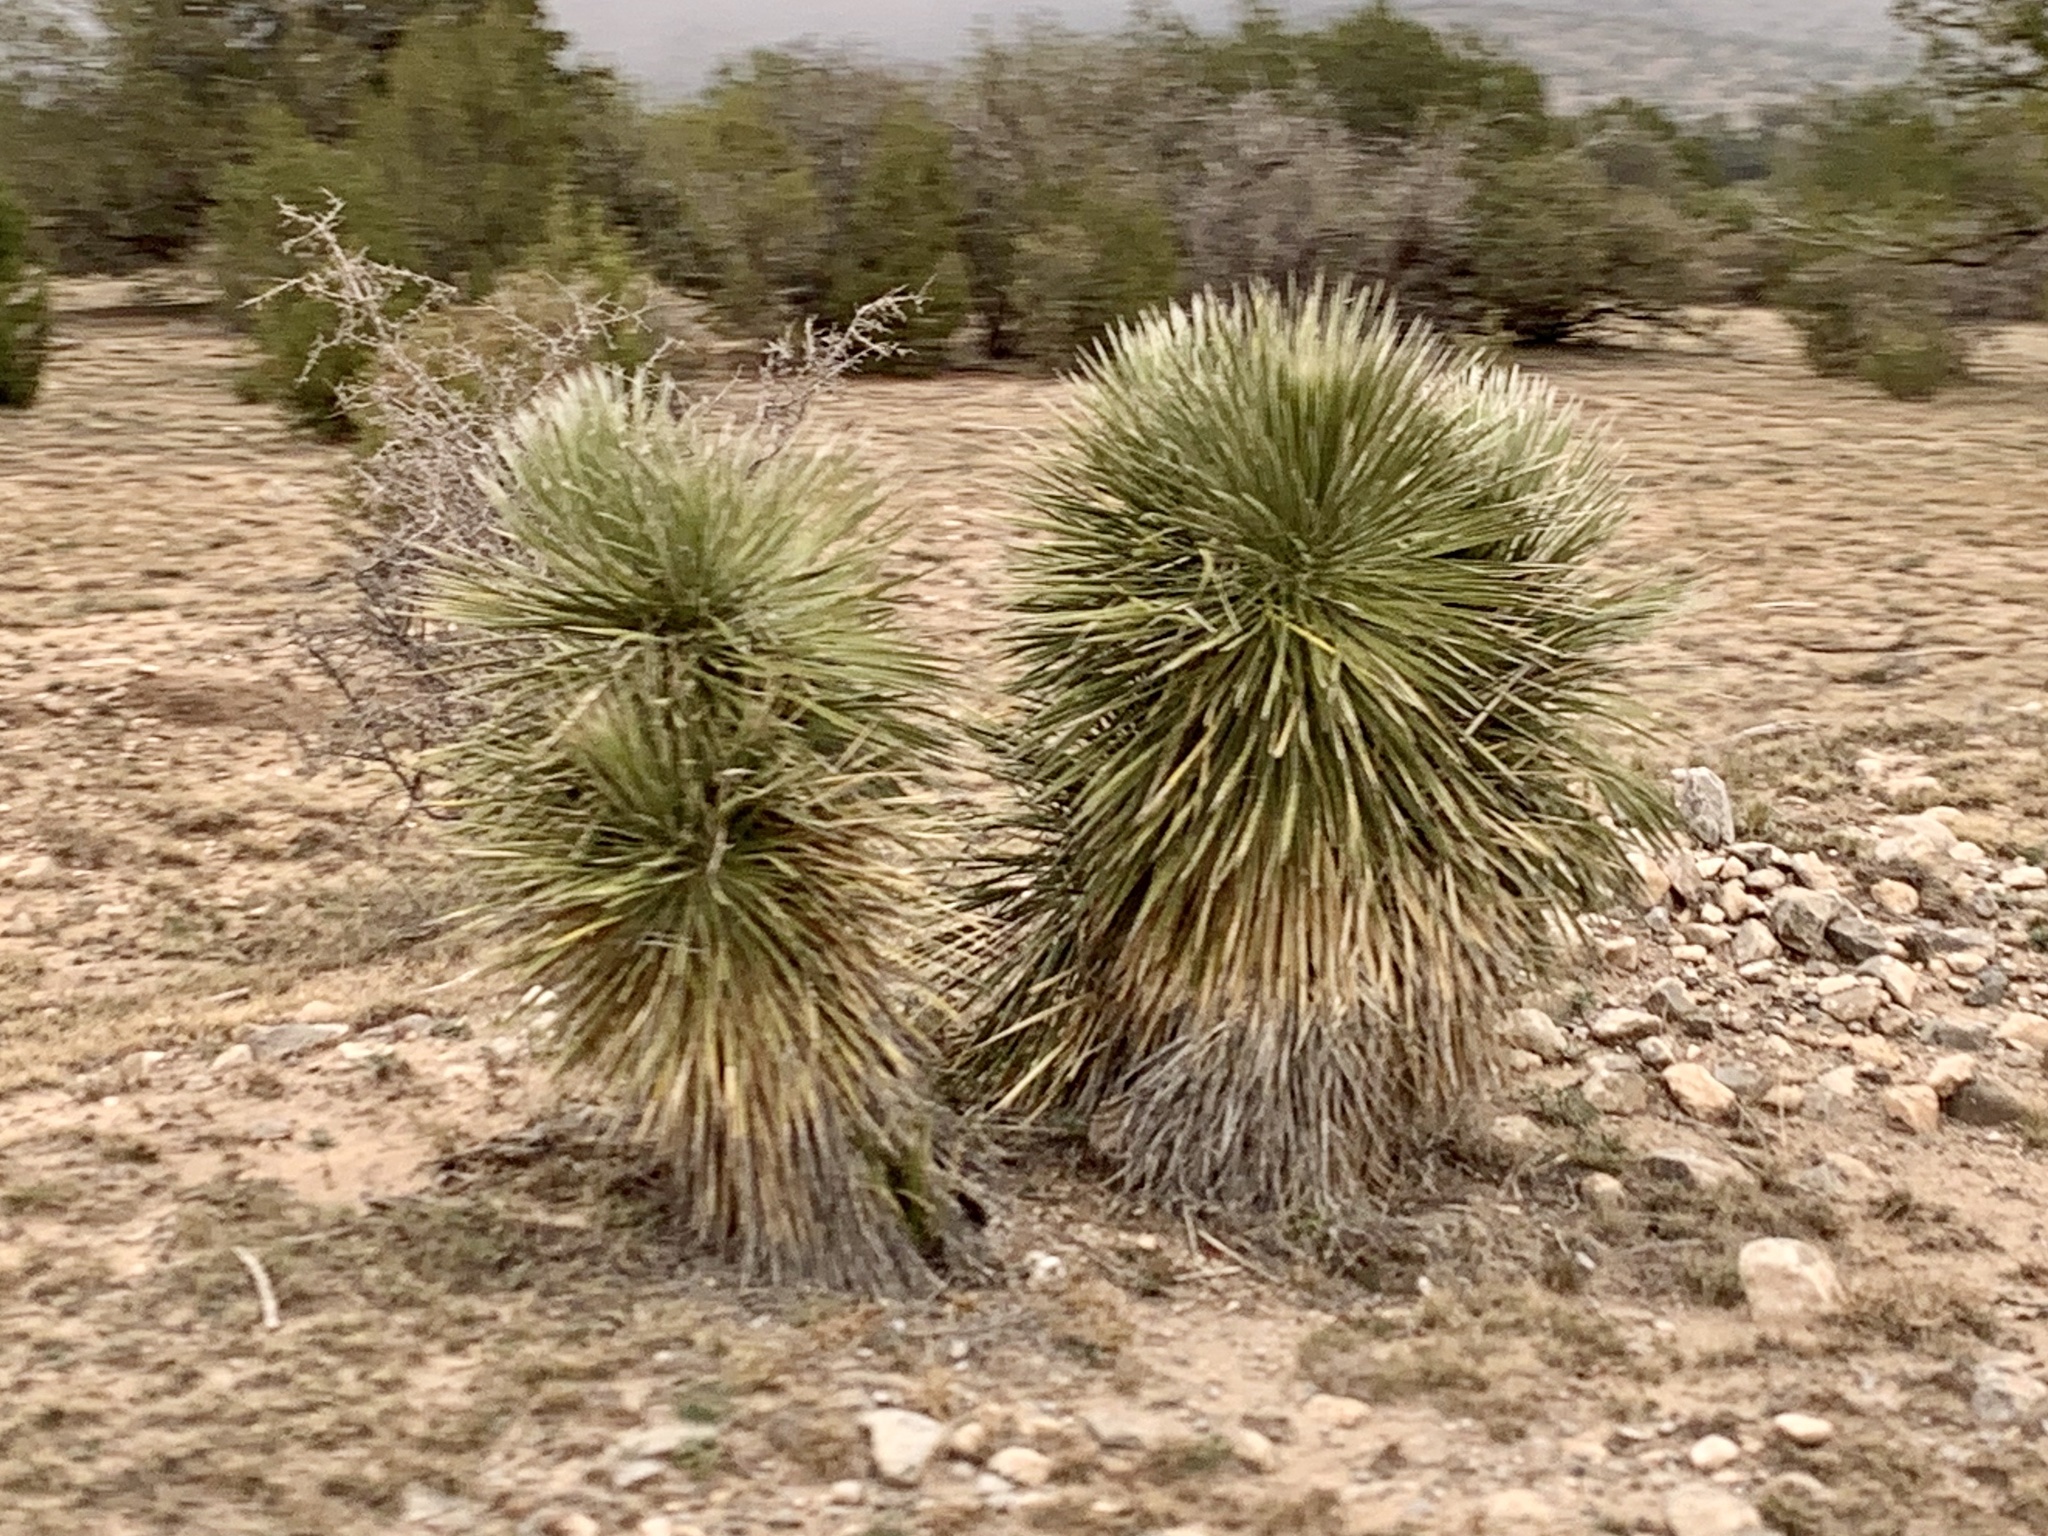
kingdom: Plantae
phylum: Tracheophyta
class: Liliopsida
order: Asparagales
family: Asparagaceae
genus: Yucca
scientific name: Yucca elata
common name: Palmella
